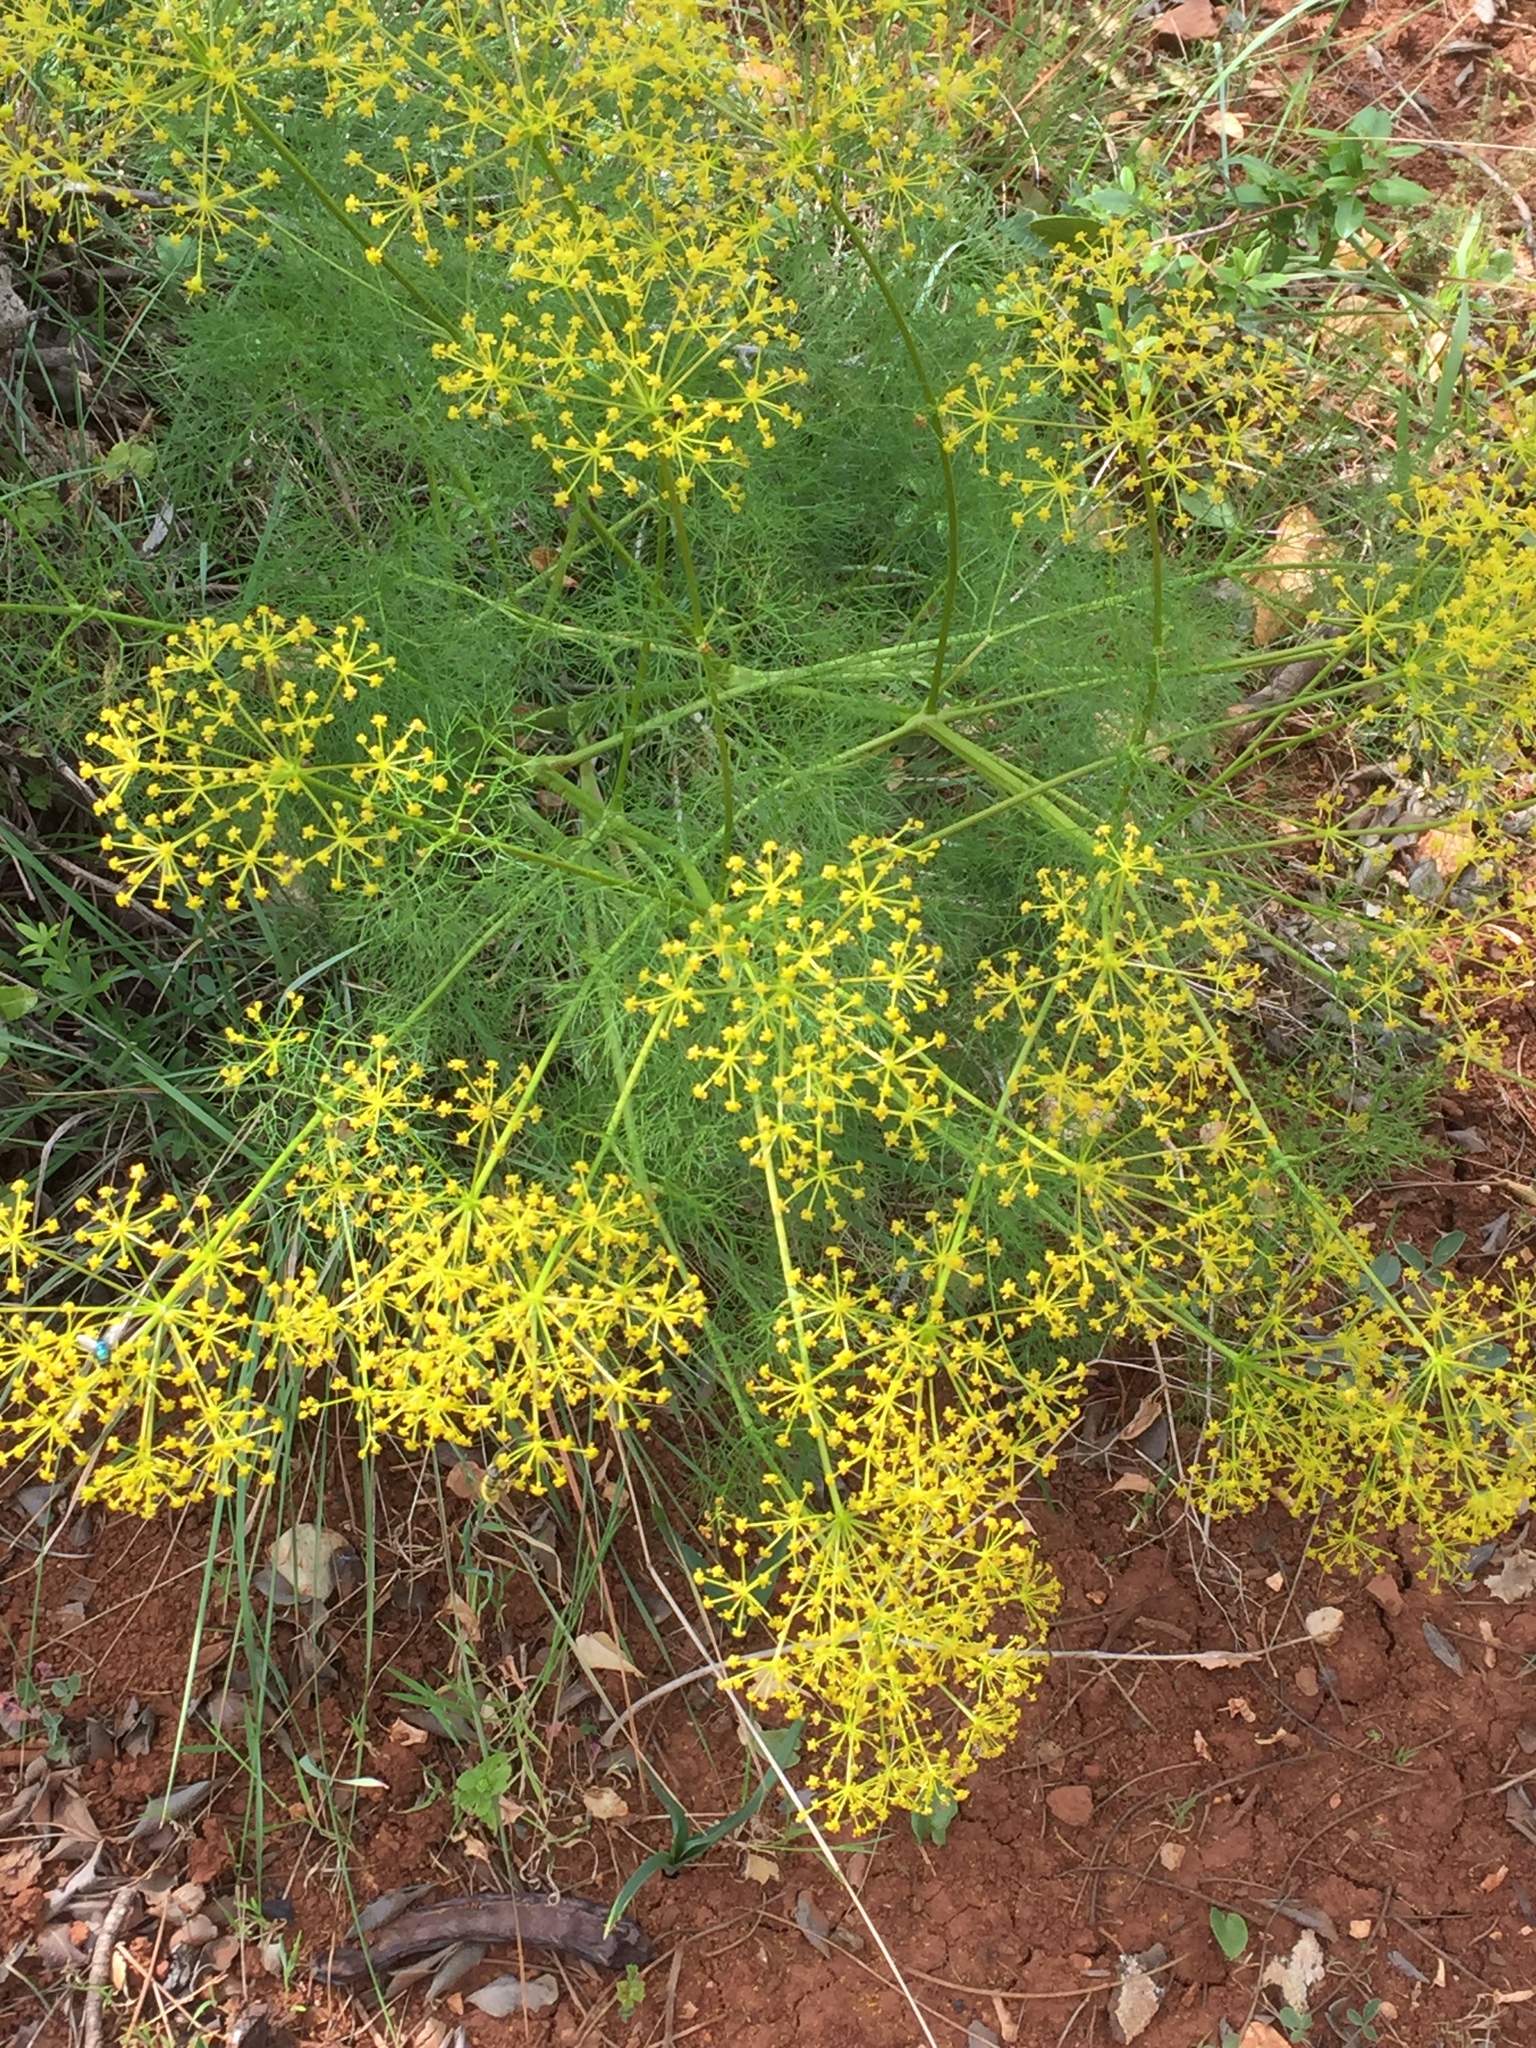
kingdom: Plantae
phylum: Tracheophyta
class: Magnoliopsida
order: Apiales
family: Apiaceae
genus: Anethum
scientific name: Anethum ridolfia
